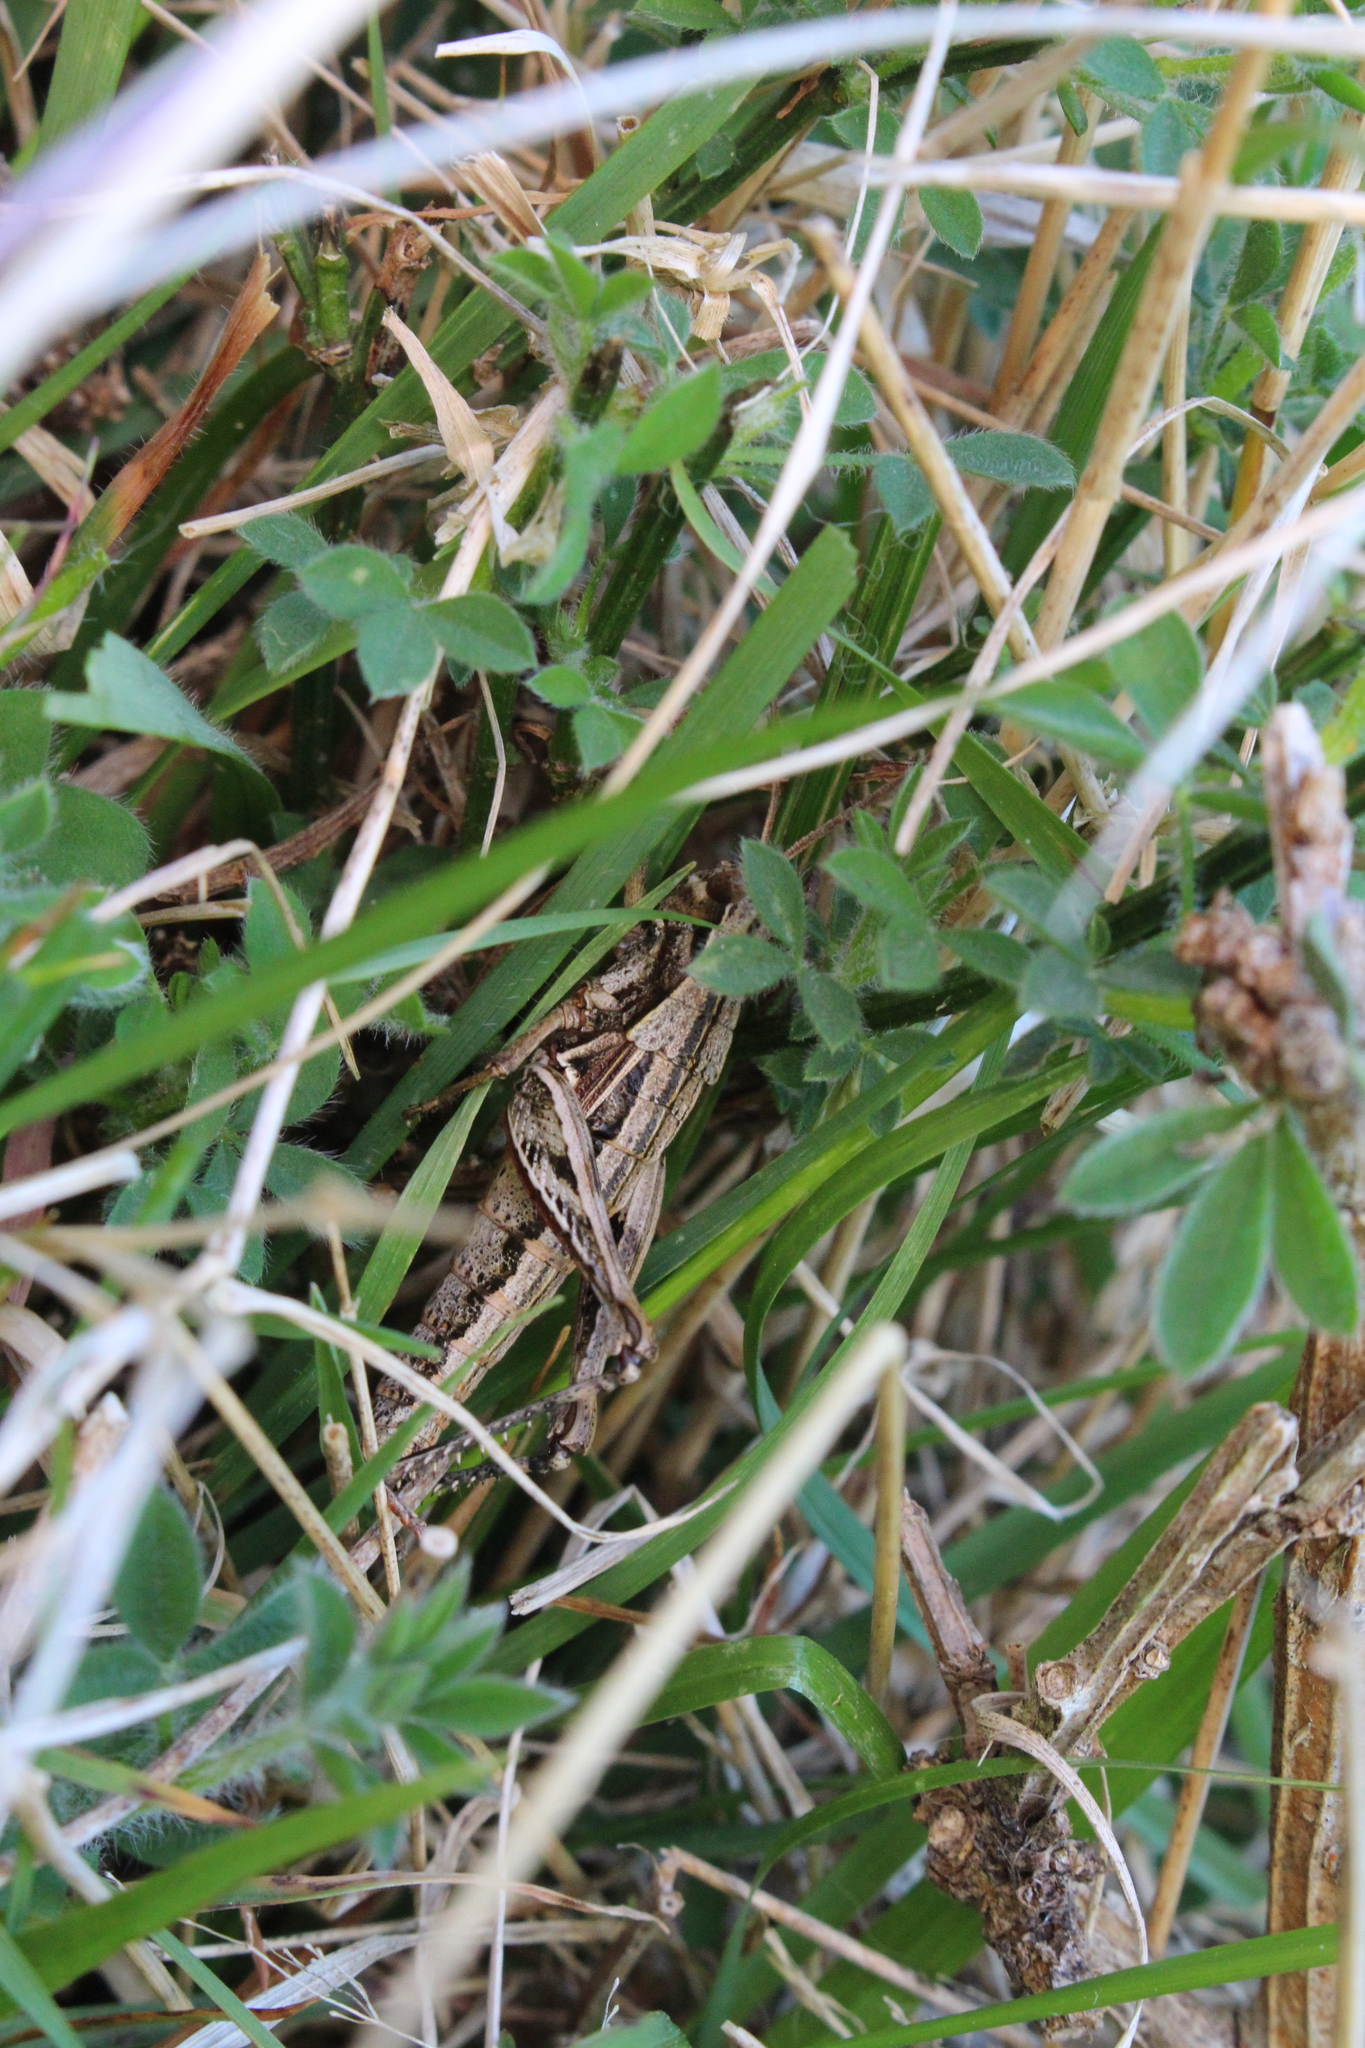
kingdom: Animalia
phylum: Arthropoda
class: Insecta
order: Orthoptera
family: Acrididae
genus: Sigaus
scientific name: Sigaus campestris
